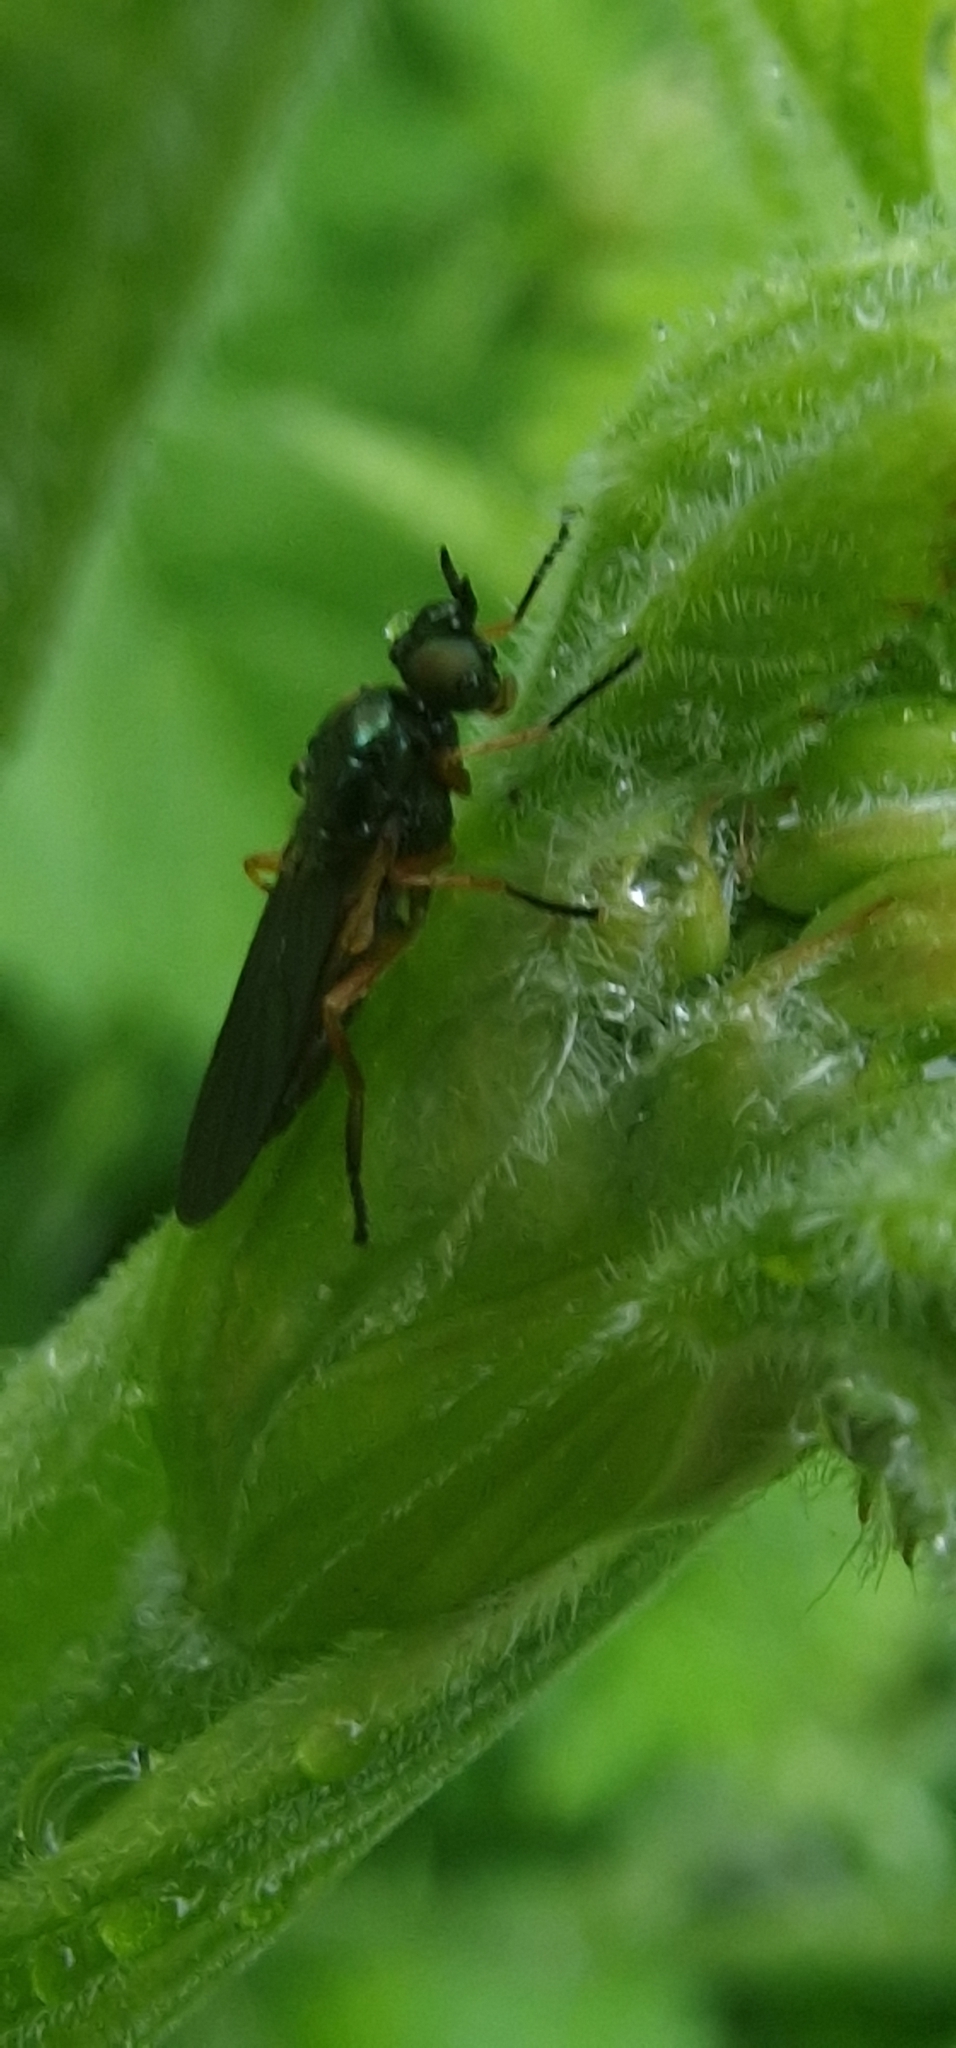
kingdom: Animalia
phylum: Arthropoda
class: Insecta
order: Diptera
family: Stratiomyidae
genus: Beris
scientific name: Beris chalybata
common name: Murky-legged black legionnaire
